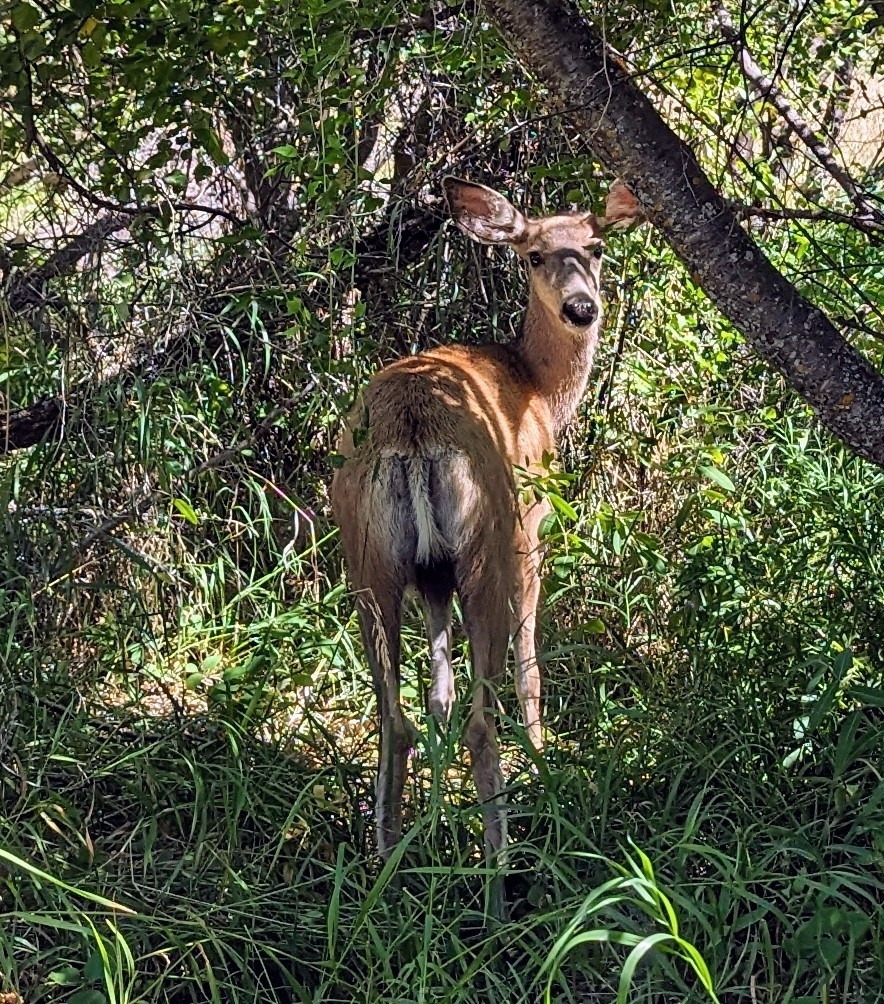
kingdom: Animalia
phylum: Chordata
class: Mammalia
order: Artiodactyla
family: Cervidae
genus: Odocoileus
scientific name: Odocoileus hemionus
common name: Mule deer
